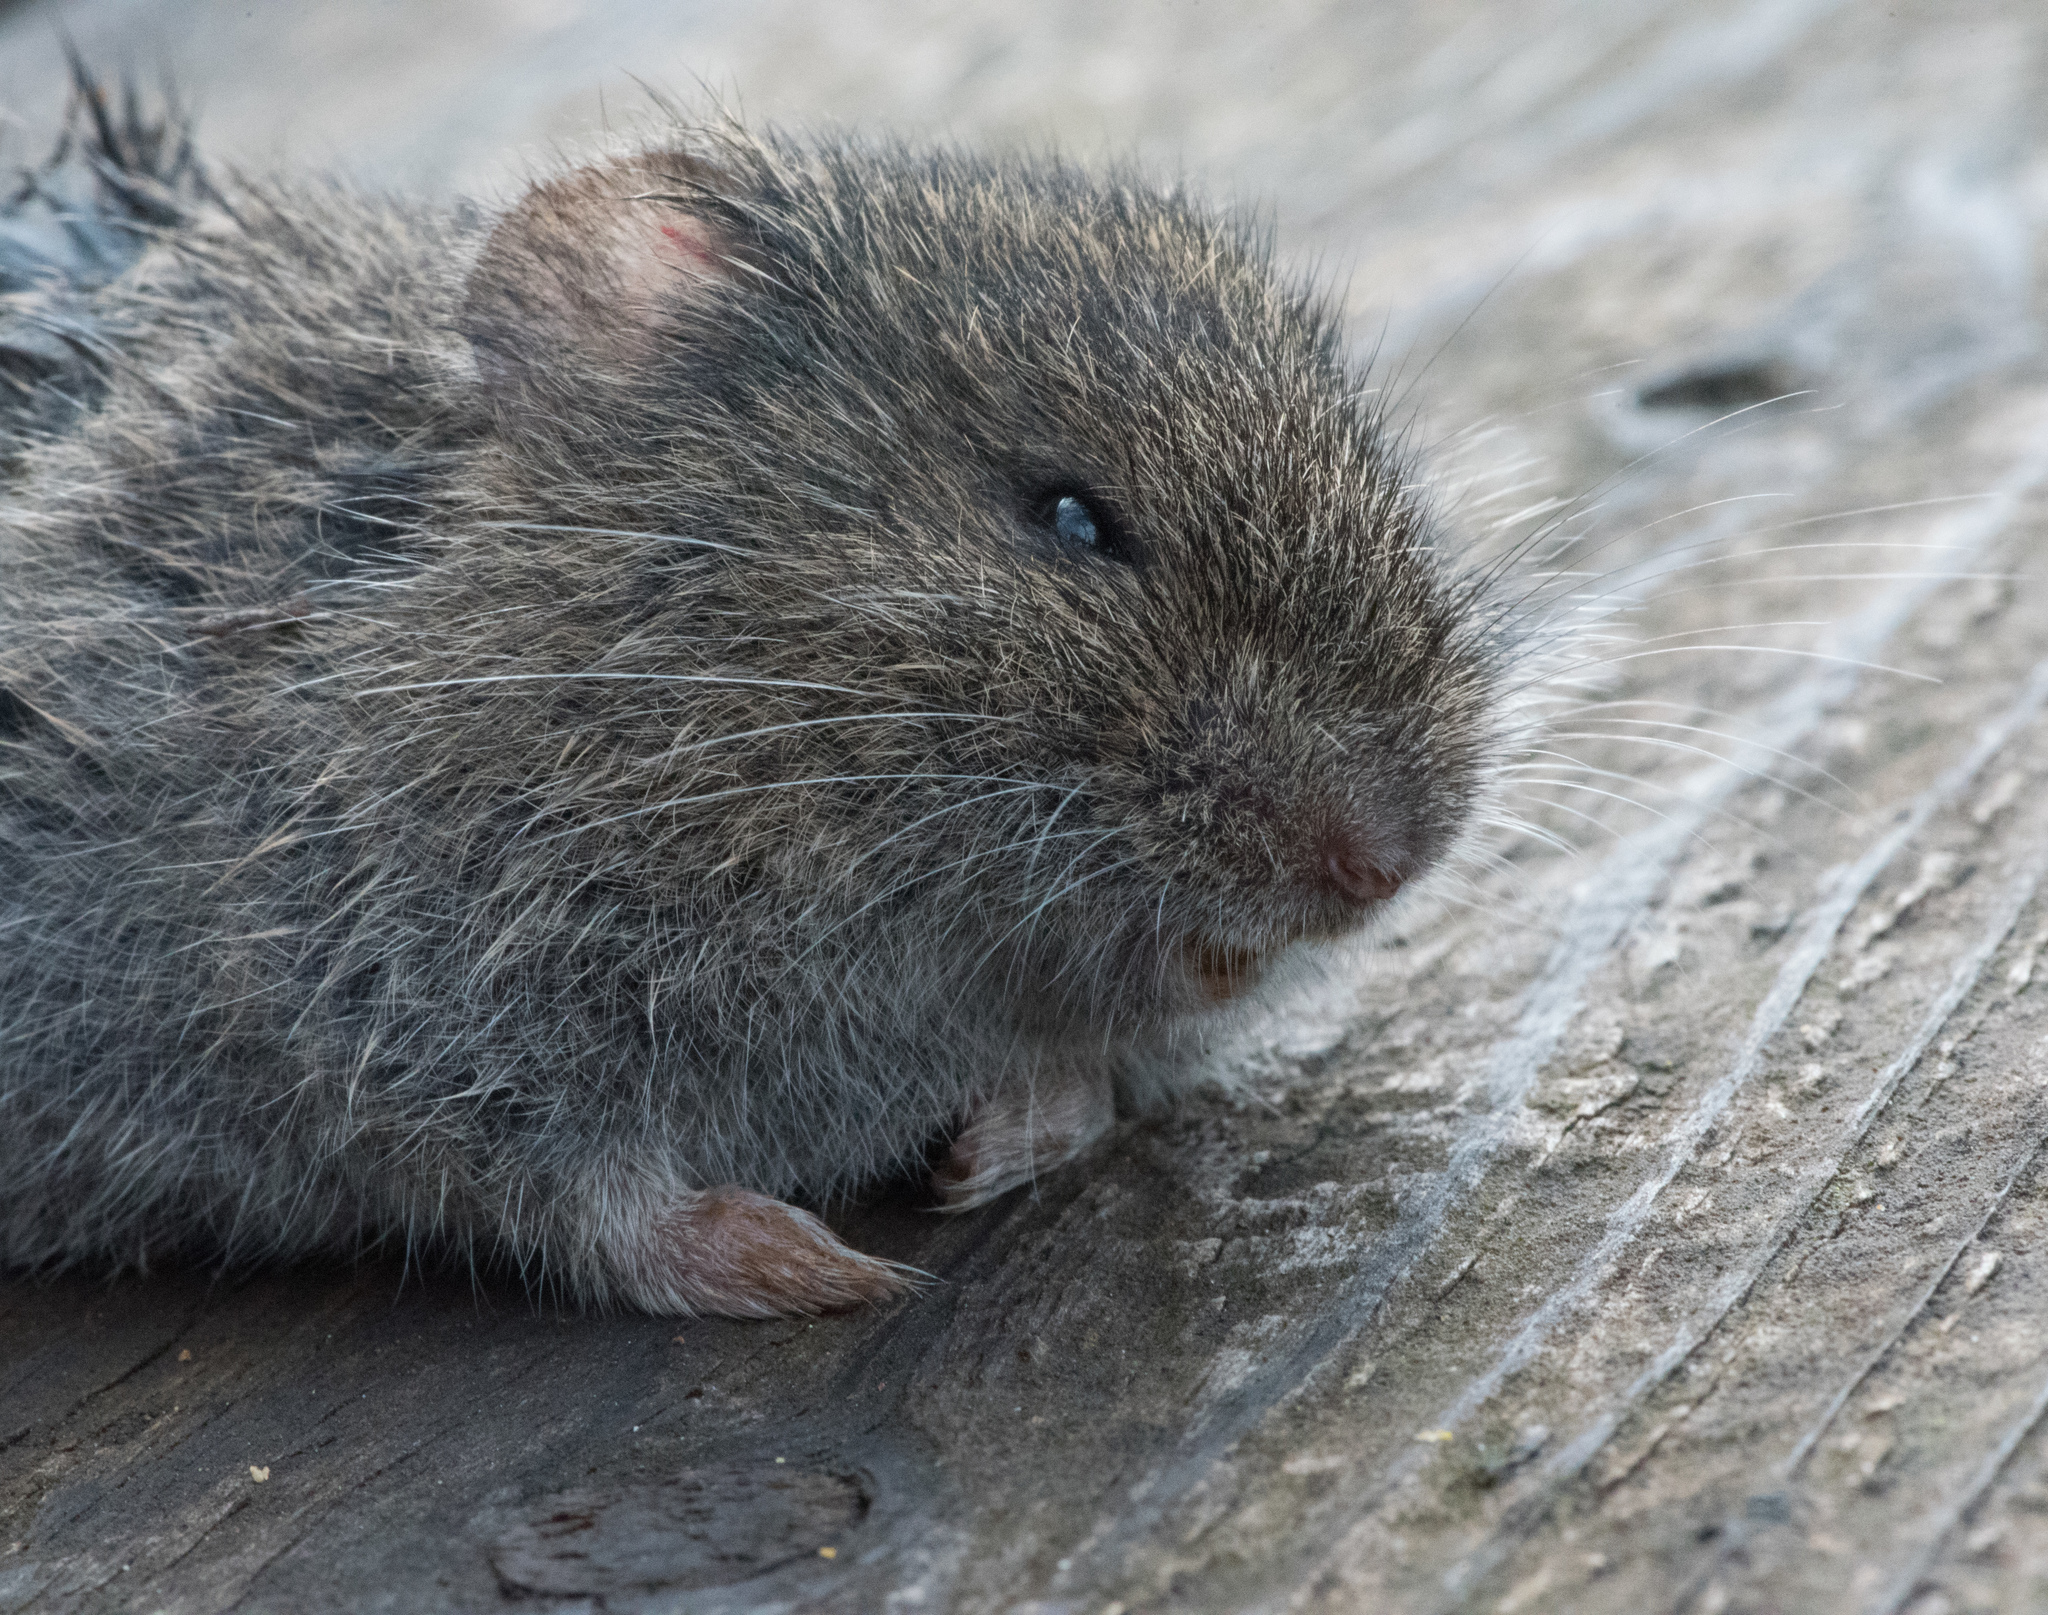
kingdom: Animalia
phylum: Chordata
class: Mammalia
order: Rodentia
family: Cricetidae
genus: Microtus
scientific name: Microtus californicus
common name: California vole
